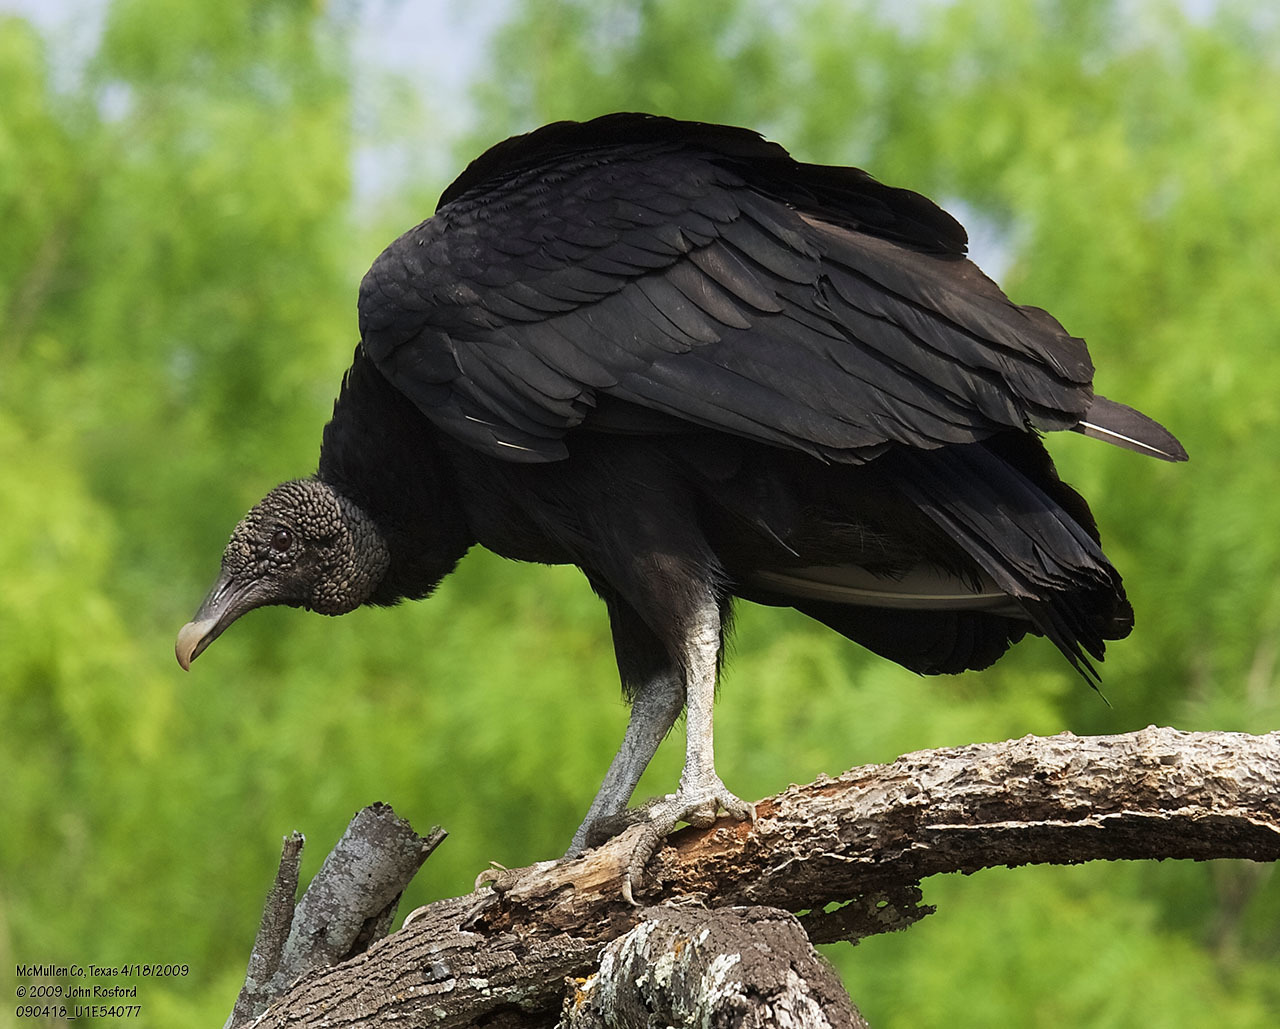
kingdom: Animalia
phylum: Chordata
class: Aves
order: Accipitriformes
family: Cathartidae
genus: Coragyps
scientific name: Coragyps atratus
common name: Black vulture
